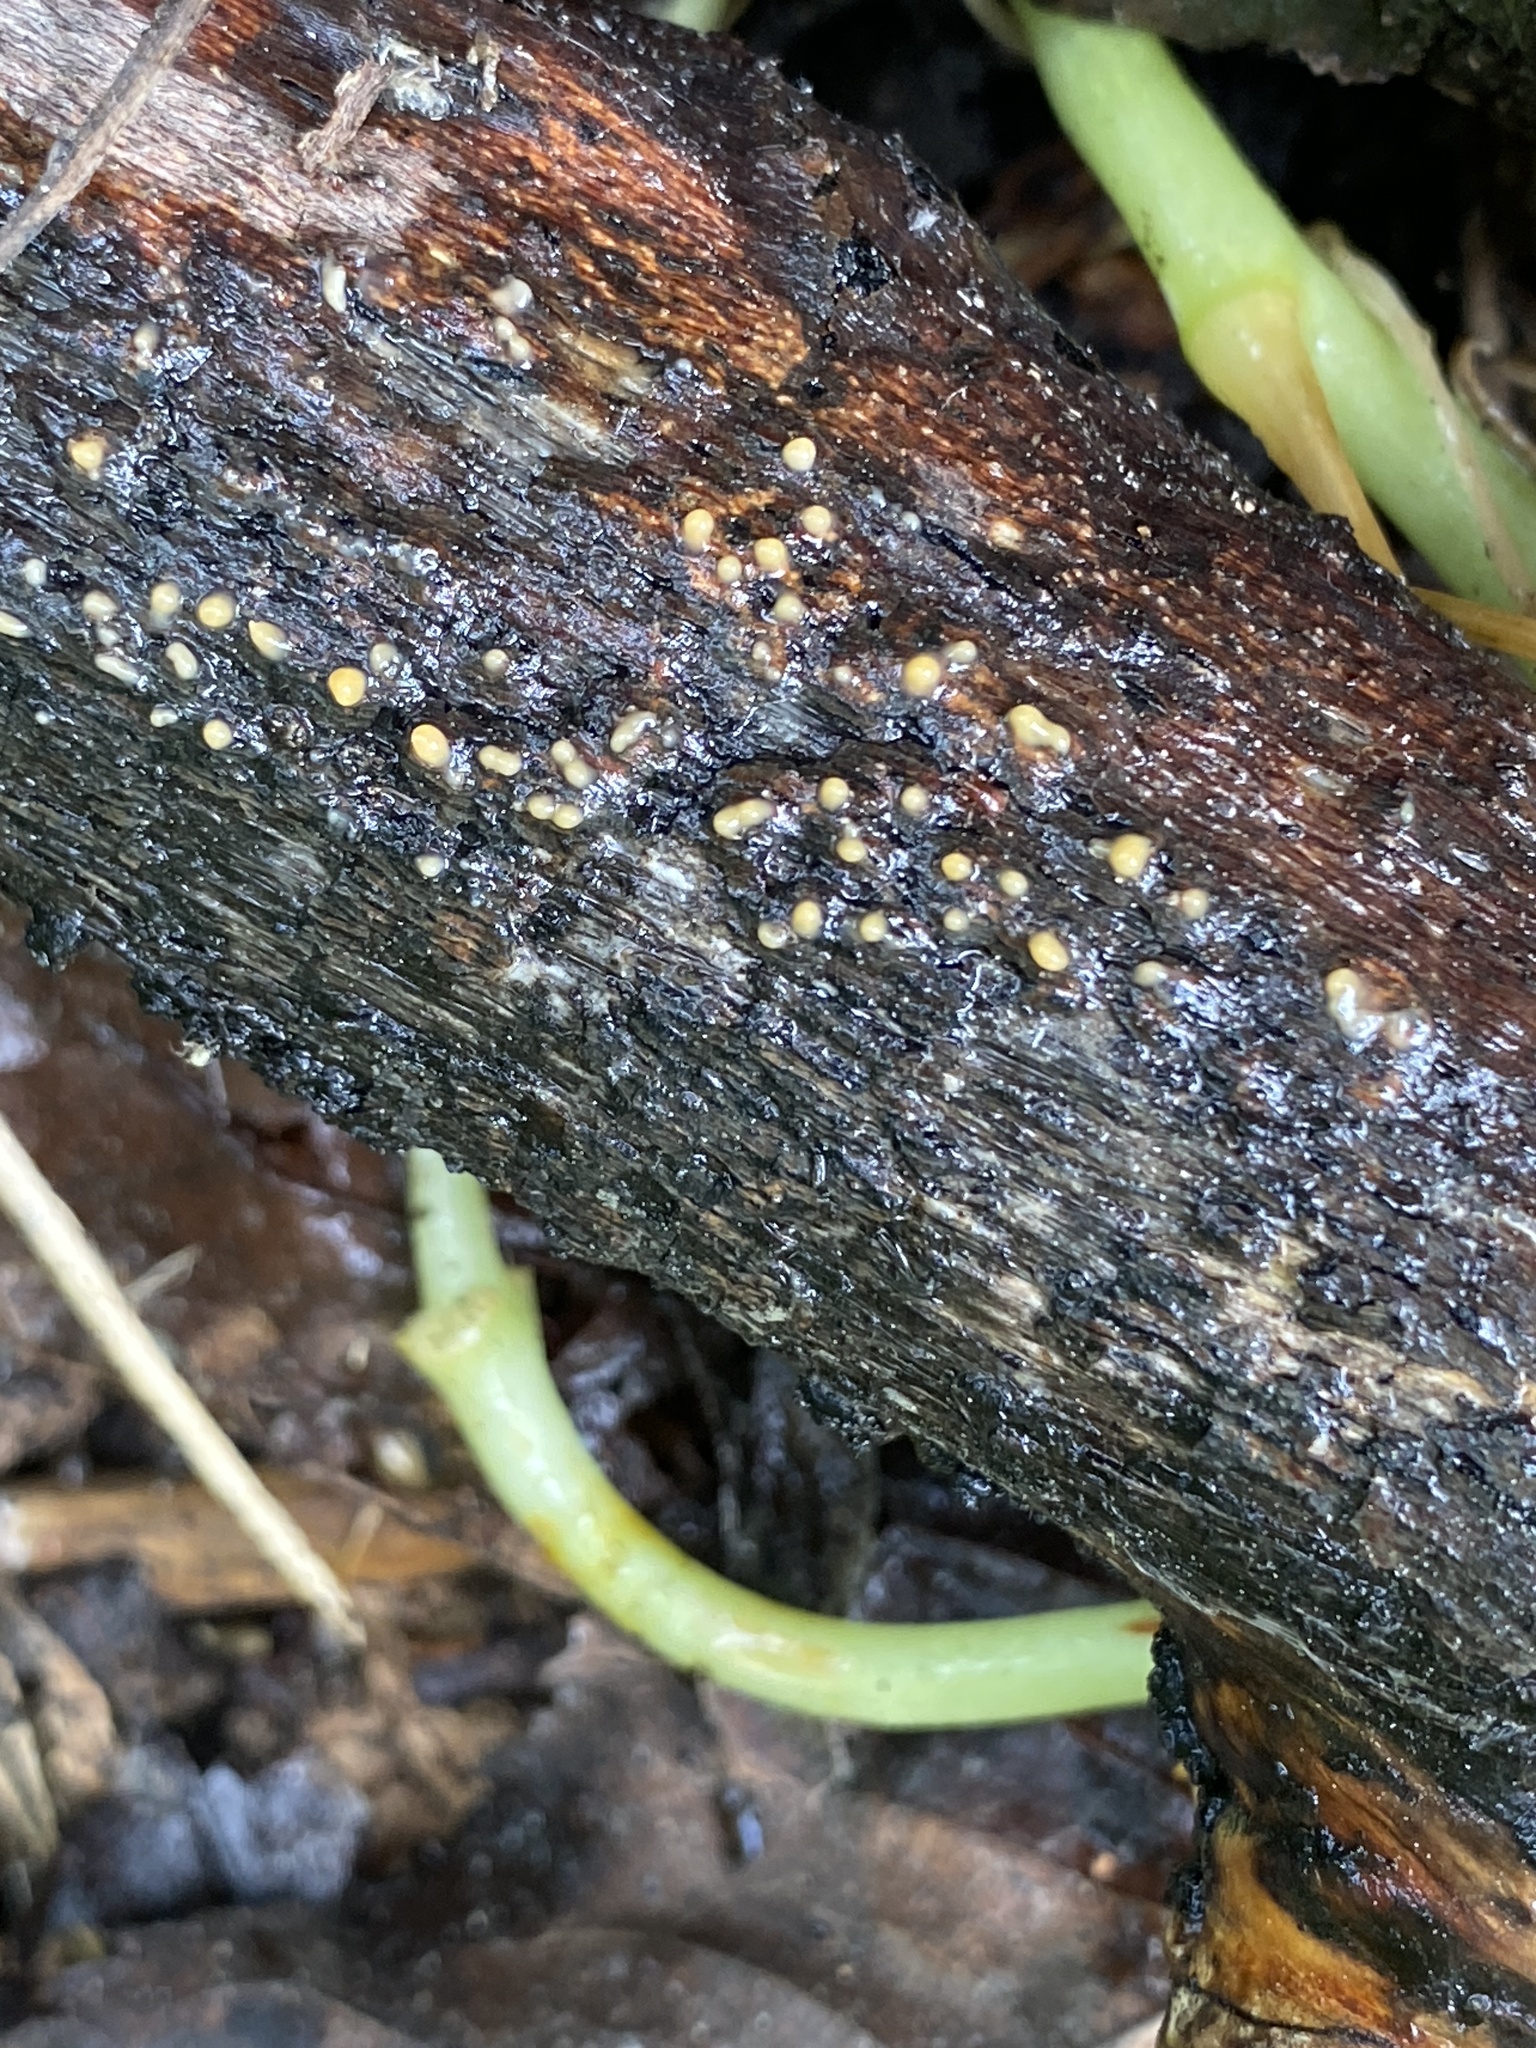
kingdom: Fungi
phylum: Basidiomycota
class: Dacrymycetes
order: Dacrymycetales
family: Dacrymycetaceae
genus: Dacrymyces
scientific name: Dacrymyces stillatus
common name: Common jelly spot
